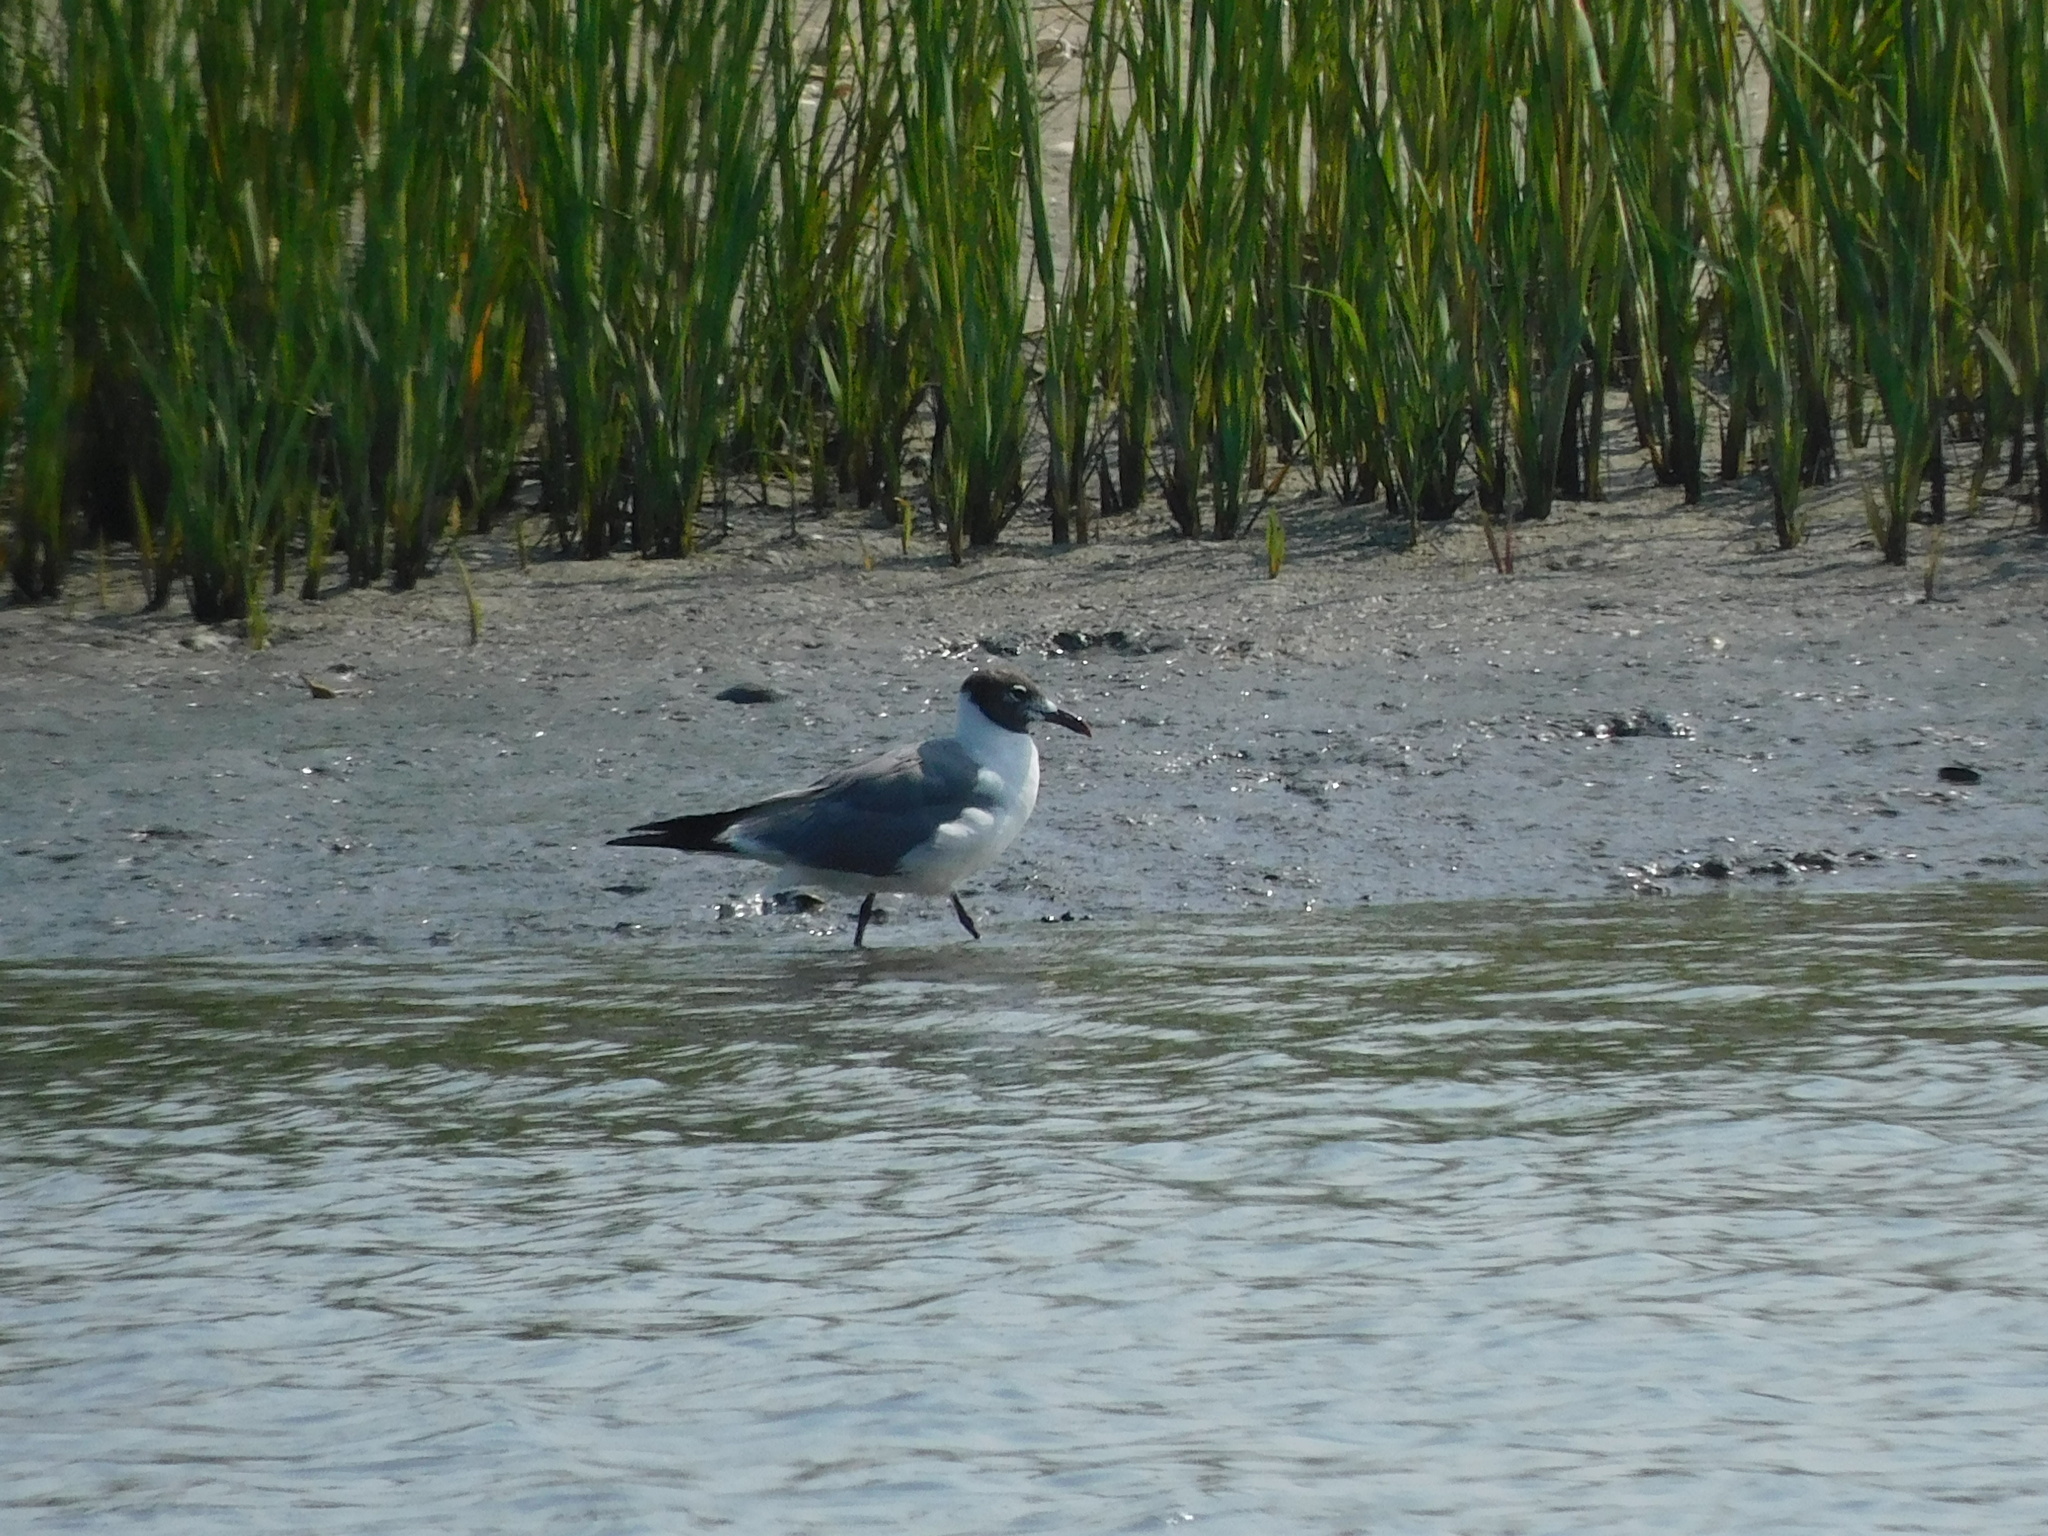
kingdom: Animalia
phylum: Chordata
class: Aves
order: Charadriiformes
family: Laridae
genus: Leucophaeus
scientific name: Leucophaeus atricilla
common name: Laughing gull
